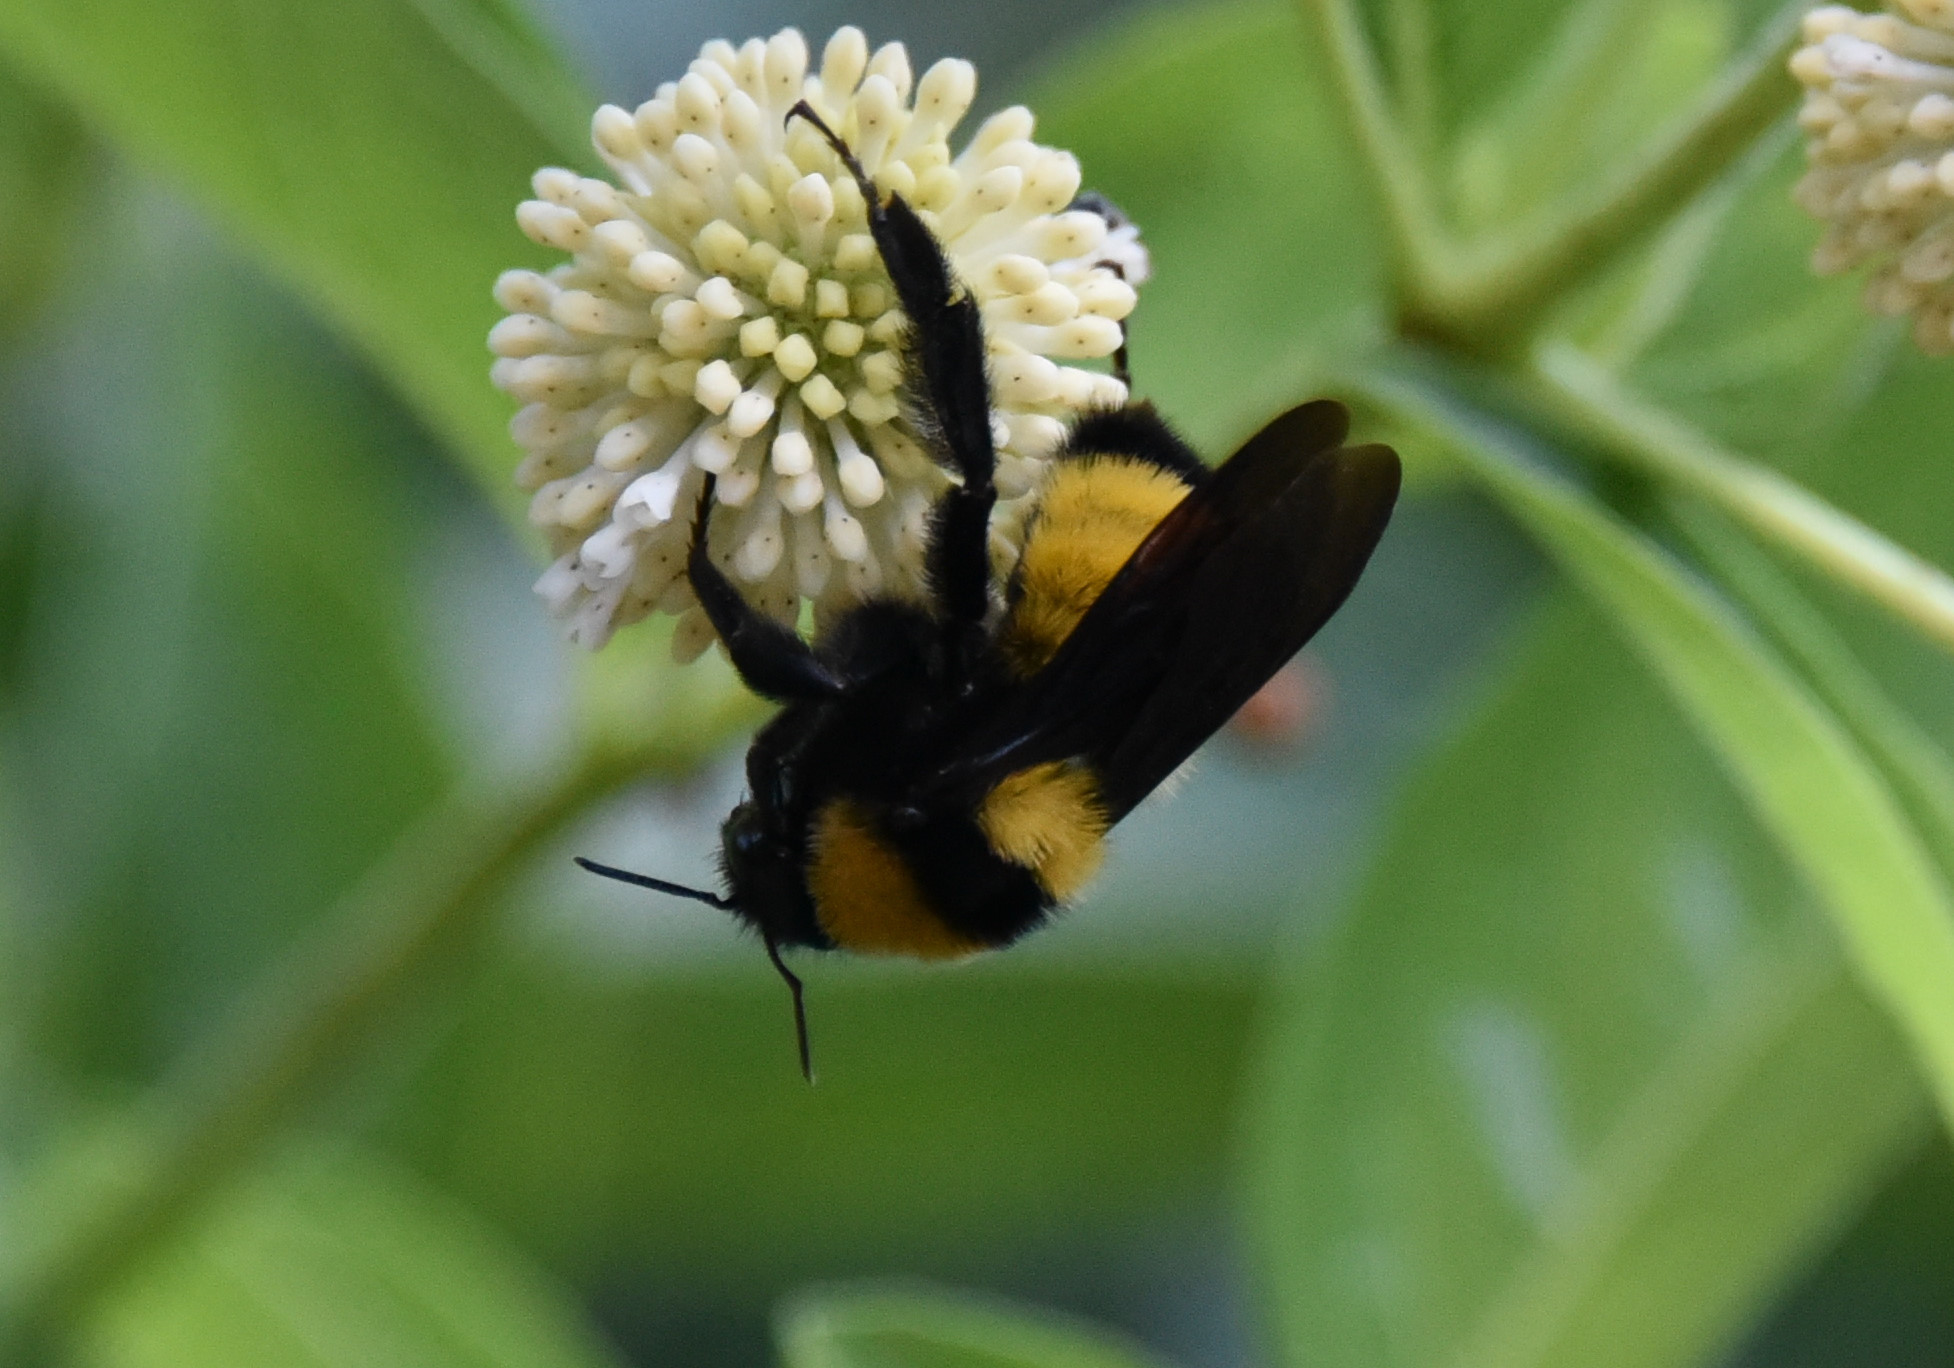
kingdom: Animalia
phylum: Arthropoda
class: Insecta
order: Hymenoptera
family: Apidae
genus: Bombus
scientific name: Bombus sonorus
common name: Sonoran bumble bee
